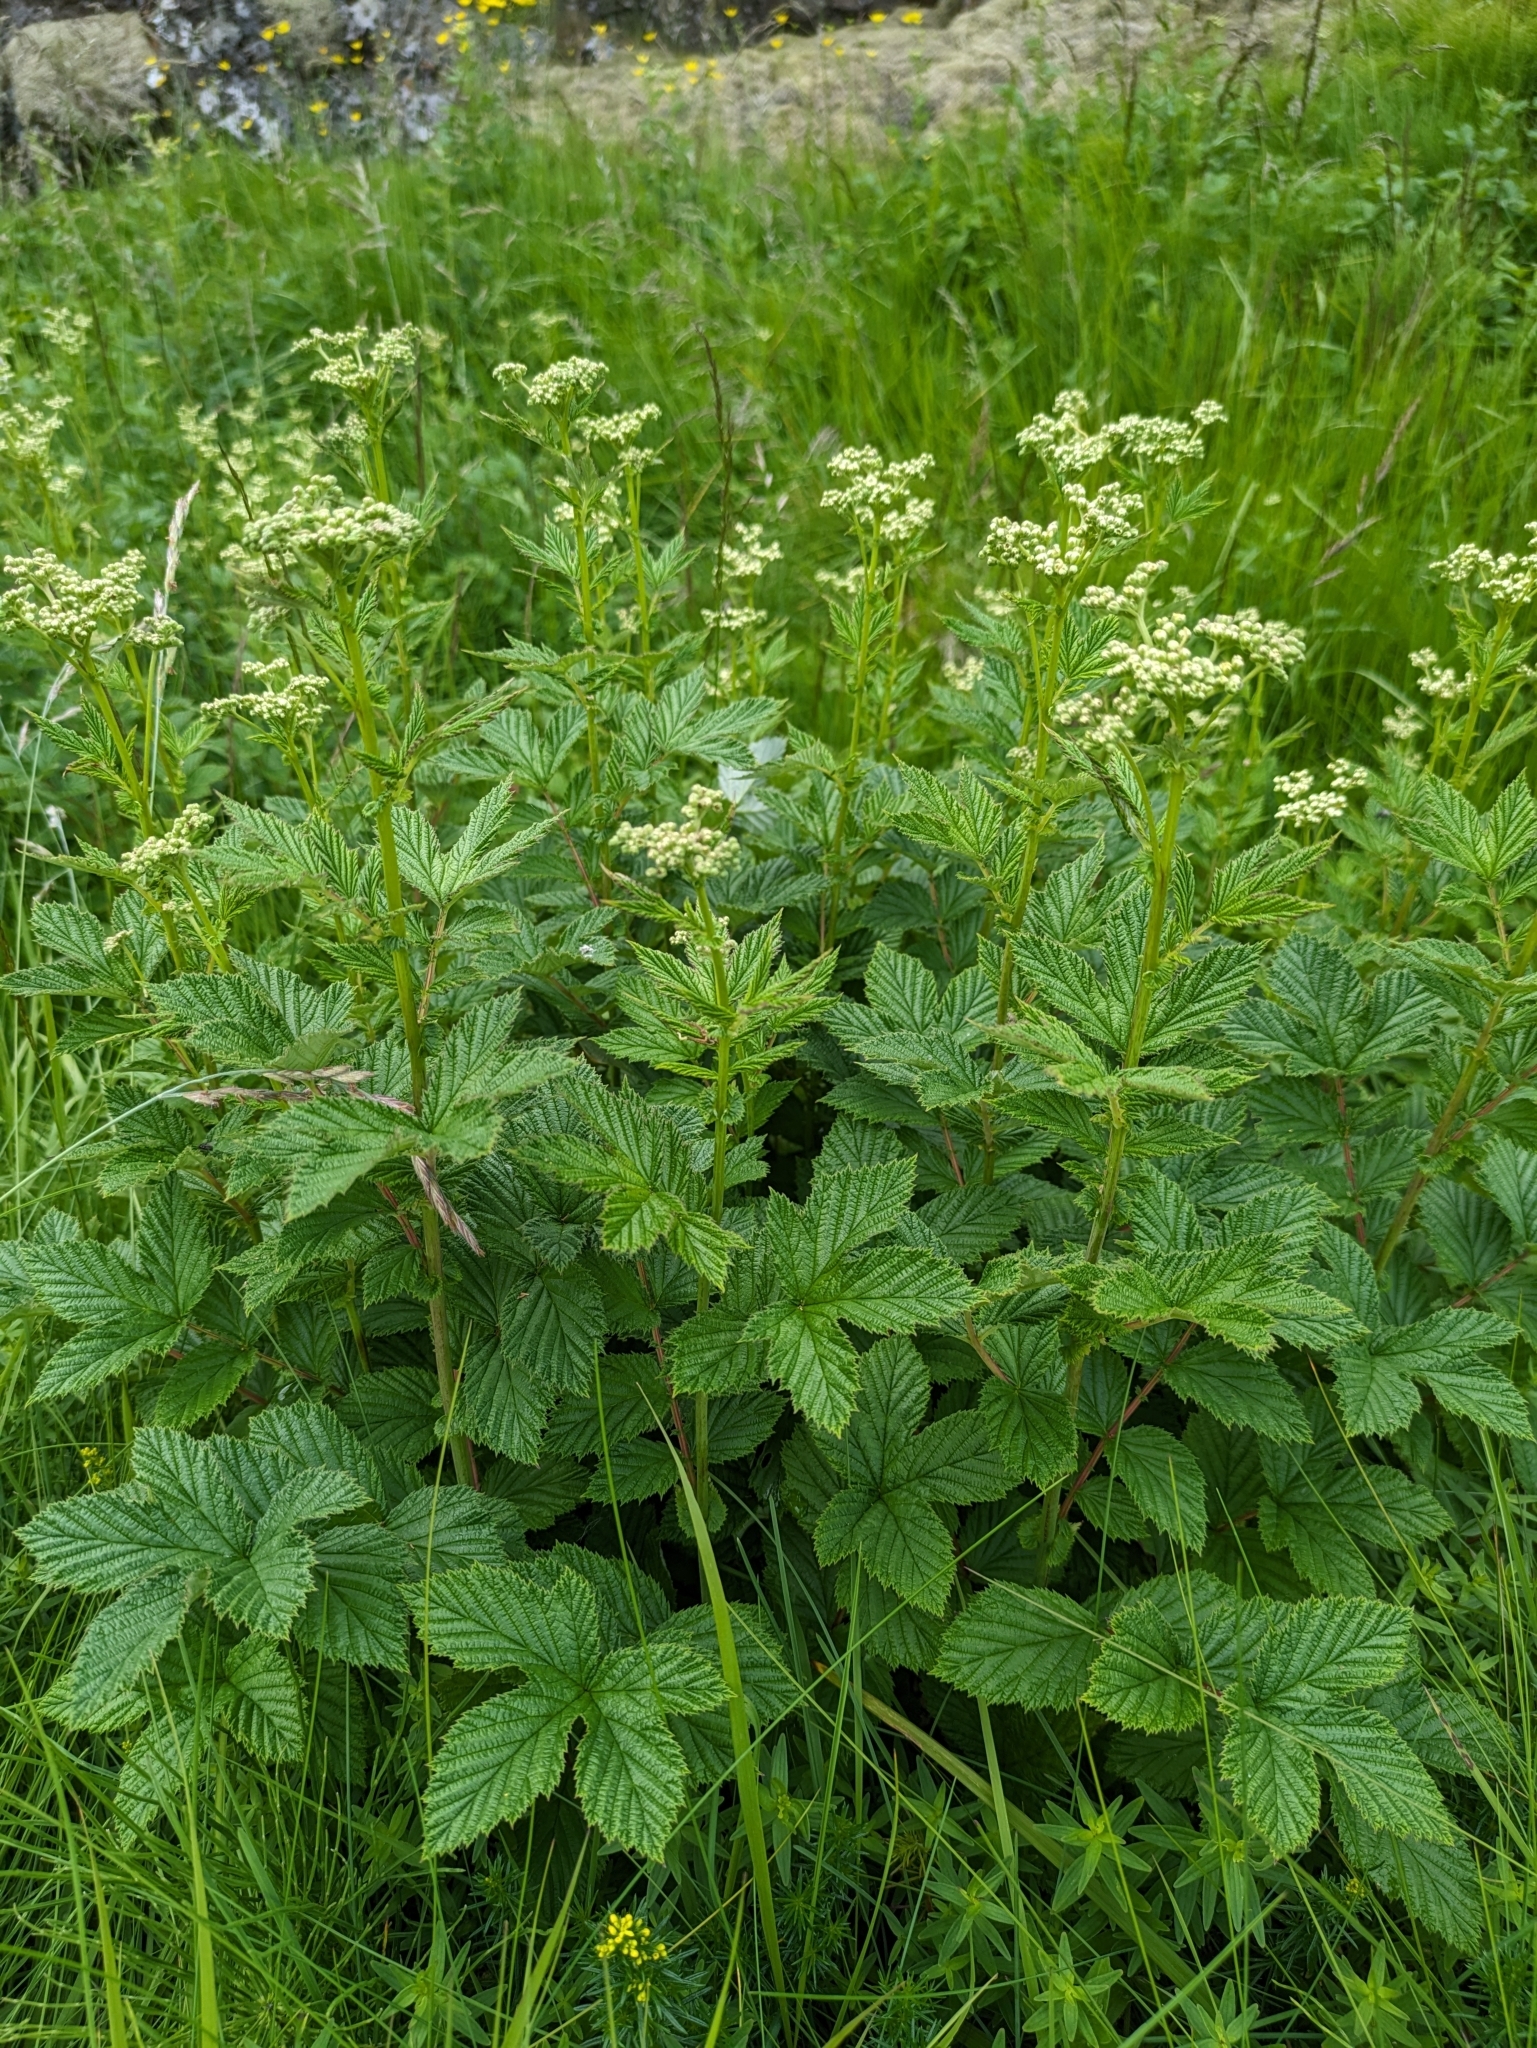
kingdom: Plantae
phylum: Tracheophyta
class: Magnoliopsida
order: Rosales
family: Rosaceae
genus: Filipendula
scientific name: Filipendula ulmaria
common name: Meadowsweet
